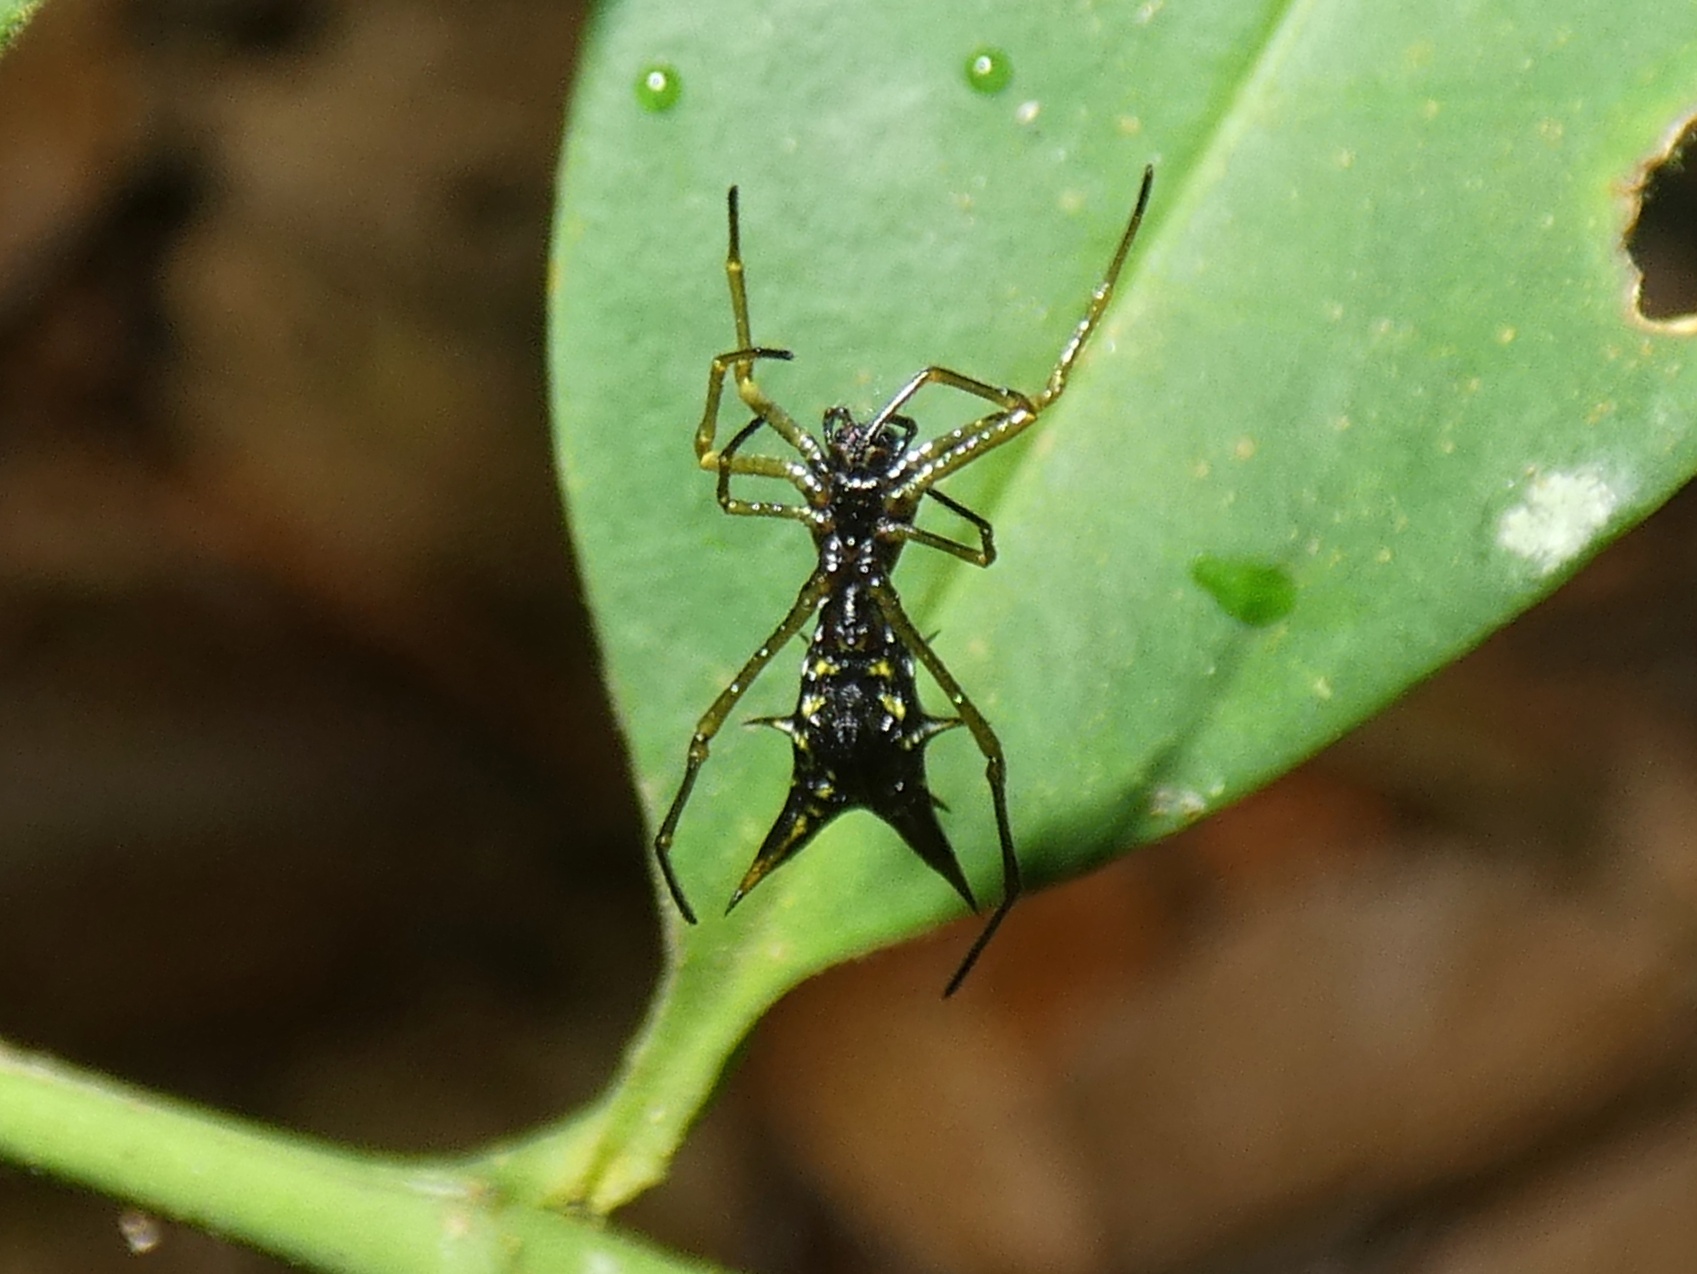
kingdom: Animalia
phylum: Arthropoda
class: Arachnida
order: Araneae
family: Araneidae
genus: Micrathena
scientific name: Micrathena donaldi
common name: Orb weavers
